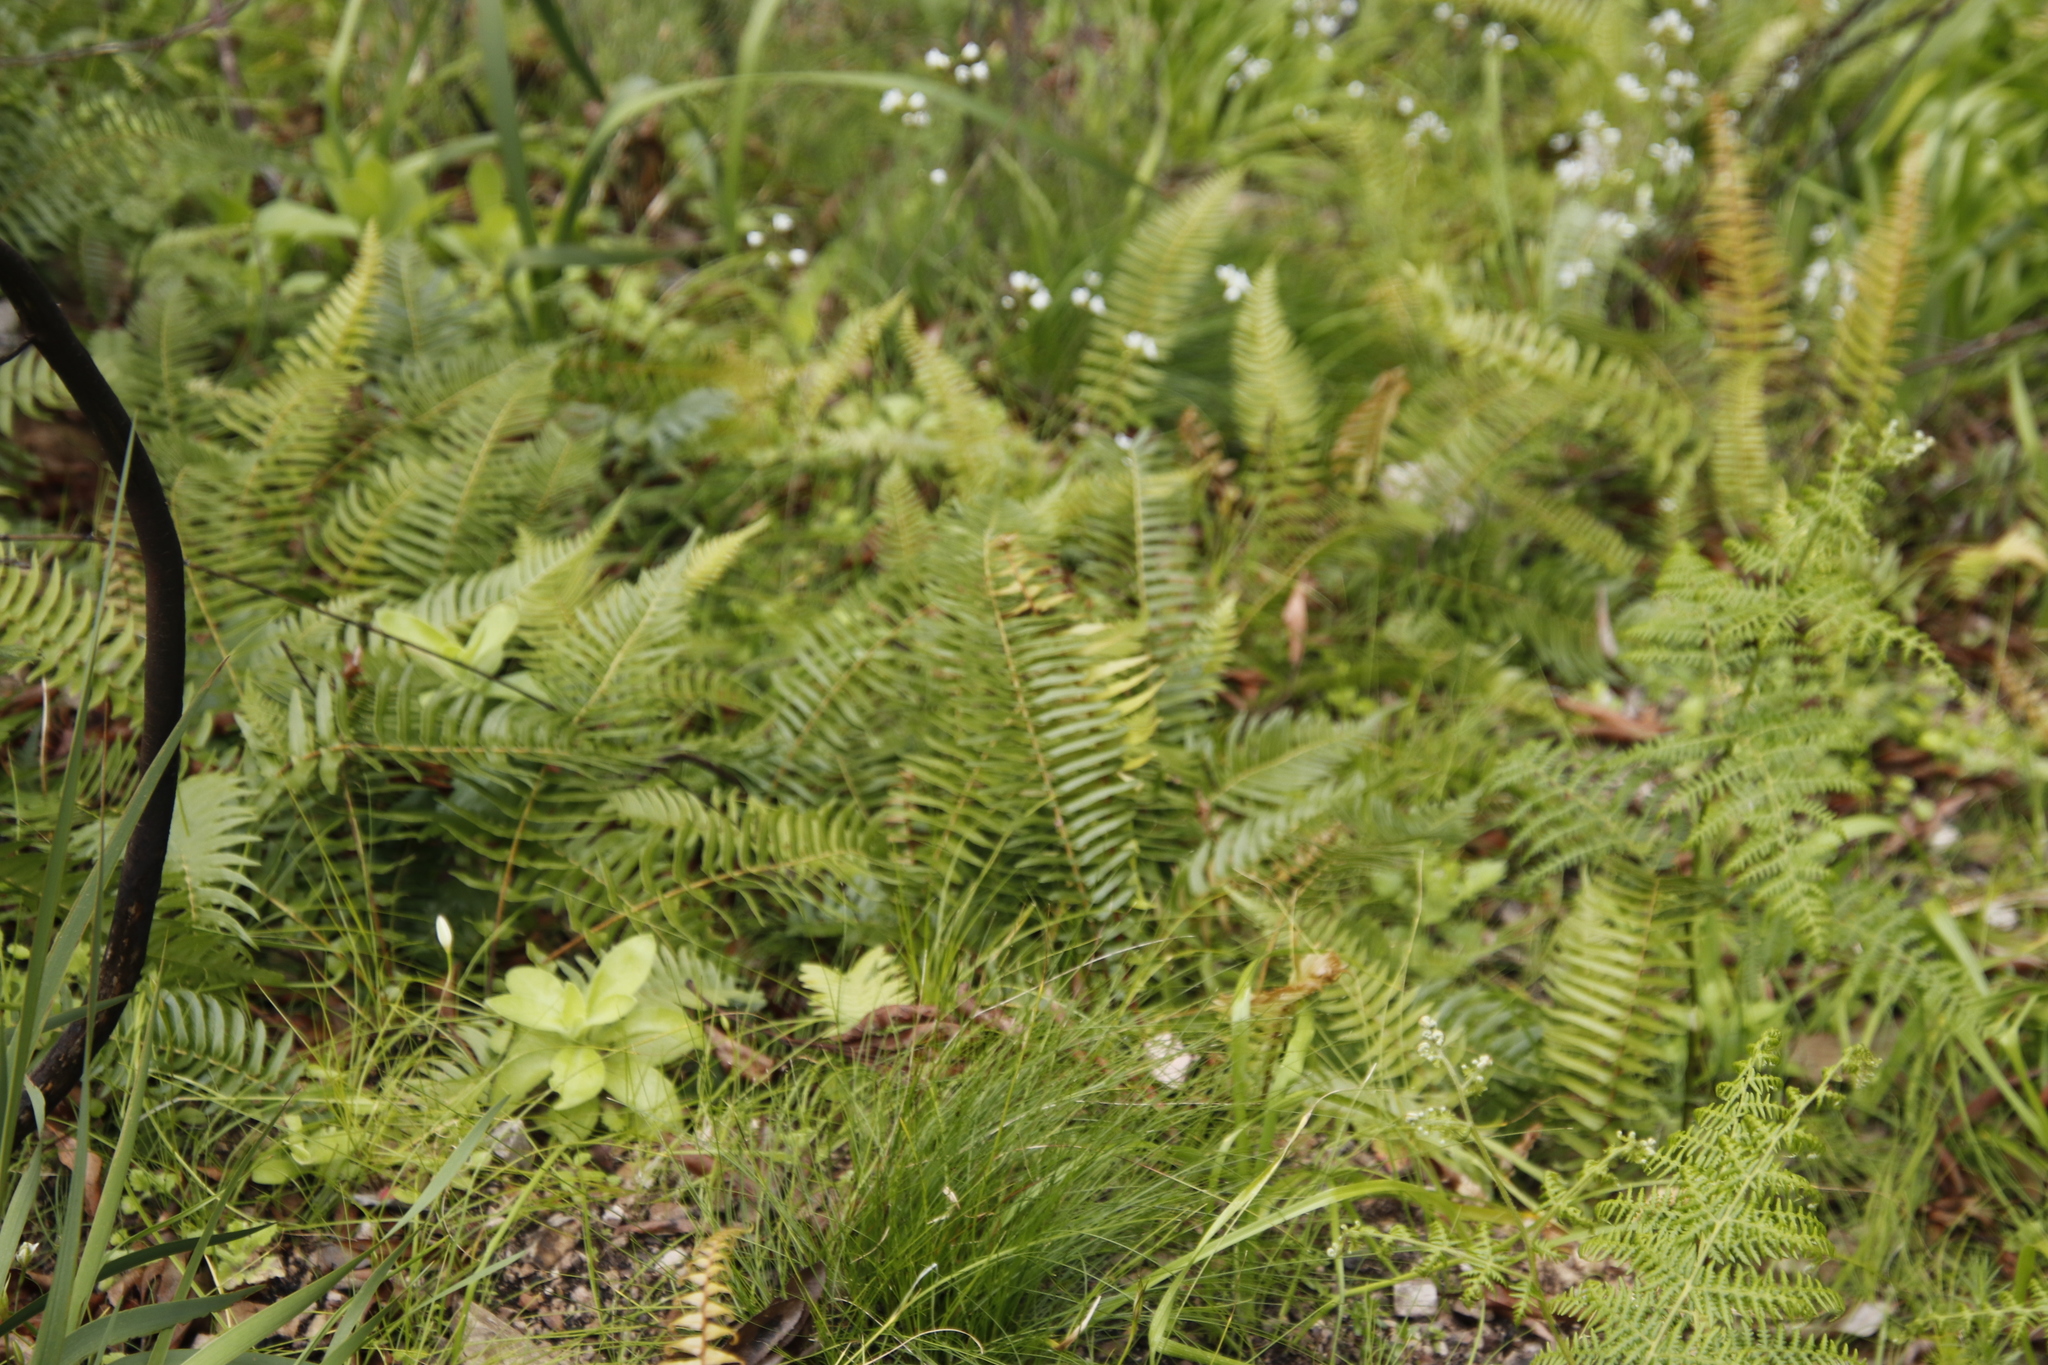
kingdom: Plantae
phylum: Tracheophyta
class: Polypodiopsida
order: Polypodiales
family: Blechnaceae
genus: Blechnum
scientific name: Blechnum punctulatum
